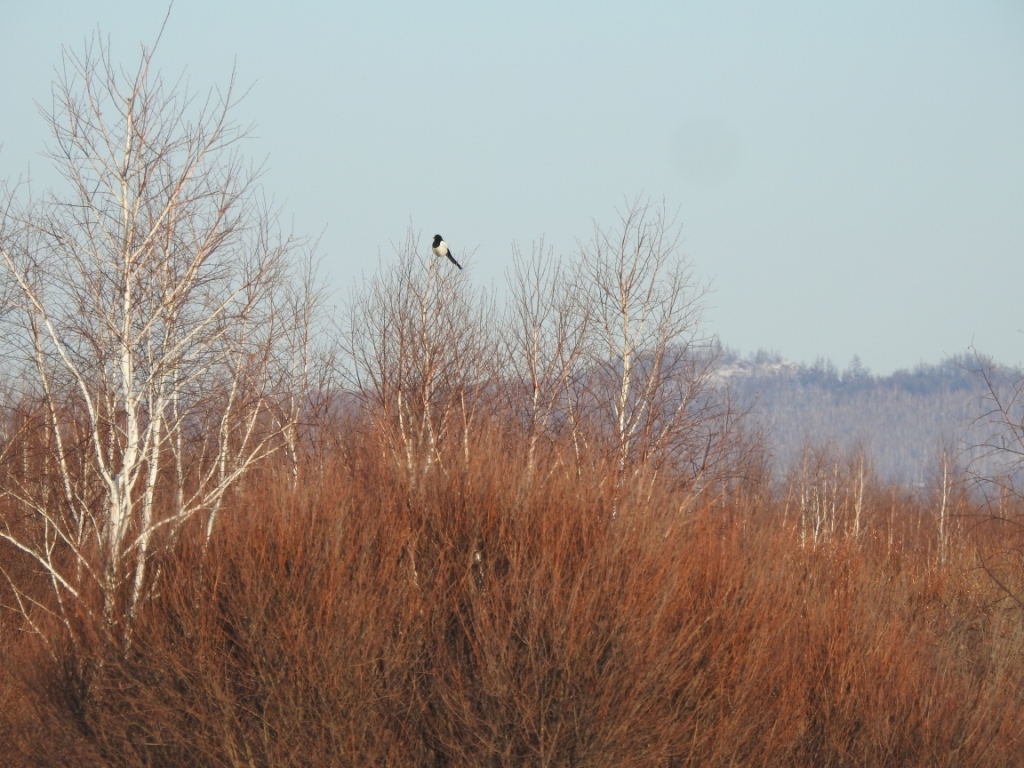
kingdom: Animalia
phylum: Chordata
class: Aves
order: Passeriformes
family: Corvidae
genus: Pica
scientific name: Pica pica
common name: Eurasian magpie
